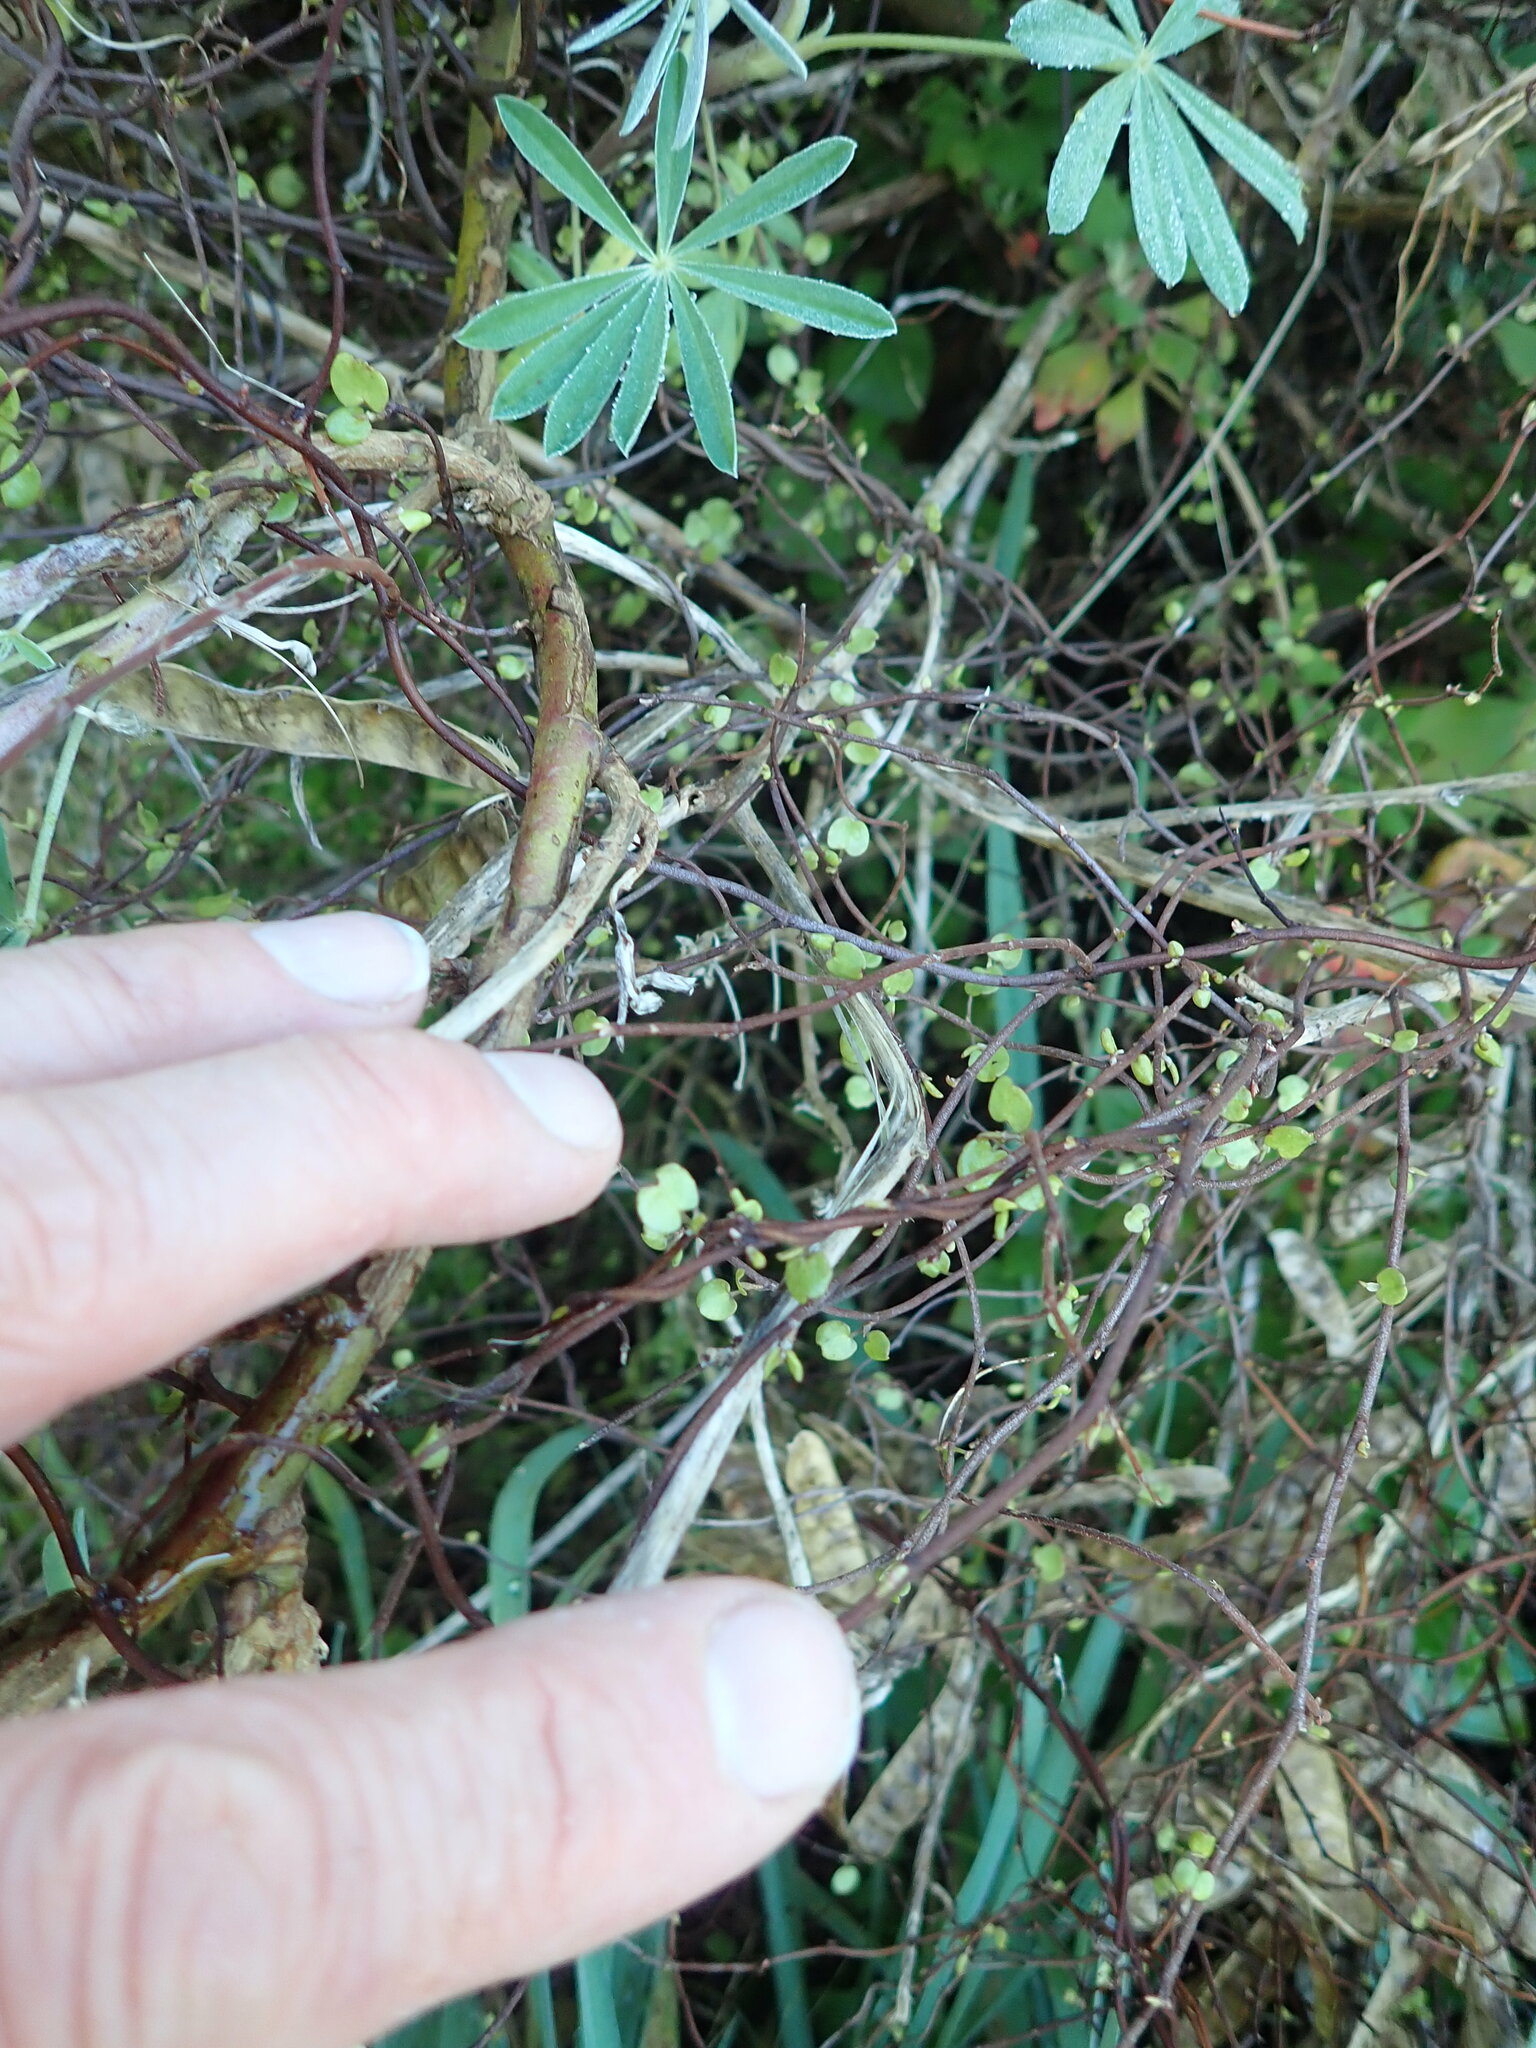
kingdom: Plantae
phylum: Tracheophyta
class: Magnoliopsida
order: Caryophyllales
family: Polygonaceae
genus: Muehlenbeckia
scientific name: Muehlenbeckia complexa
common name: Wireplant
